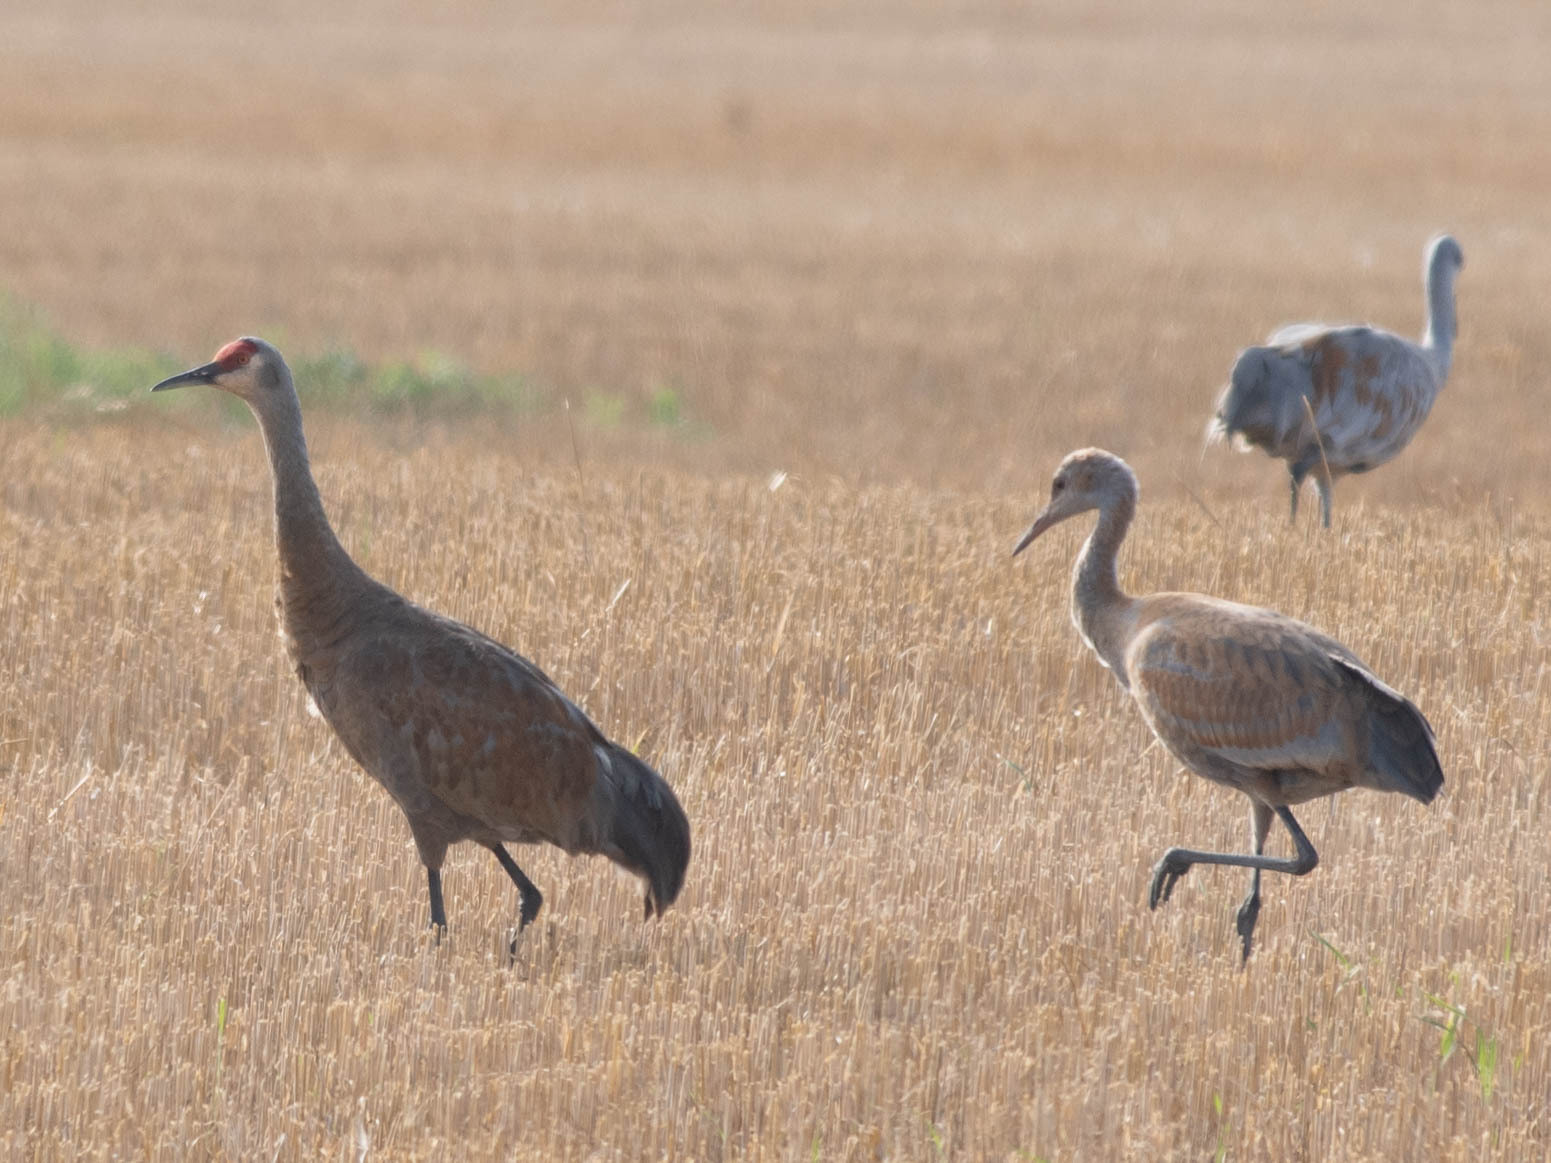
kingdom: Animalia
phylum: Chordata
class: Aves
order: Gruiformes
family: Gruidae
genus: Grus
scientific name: Grus canadensis
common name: Sandhill crane
